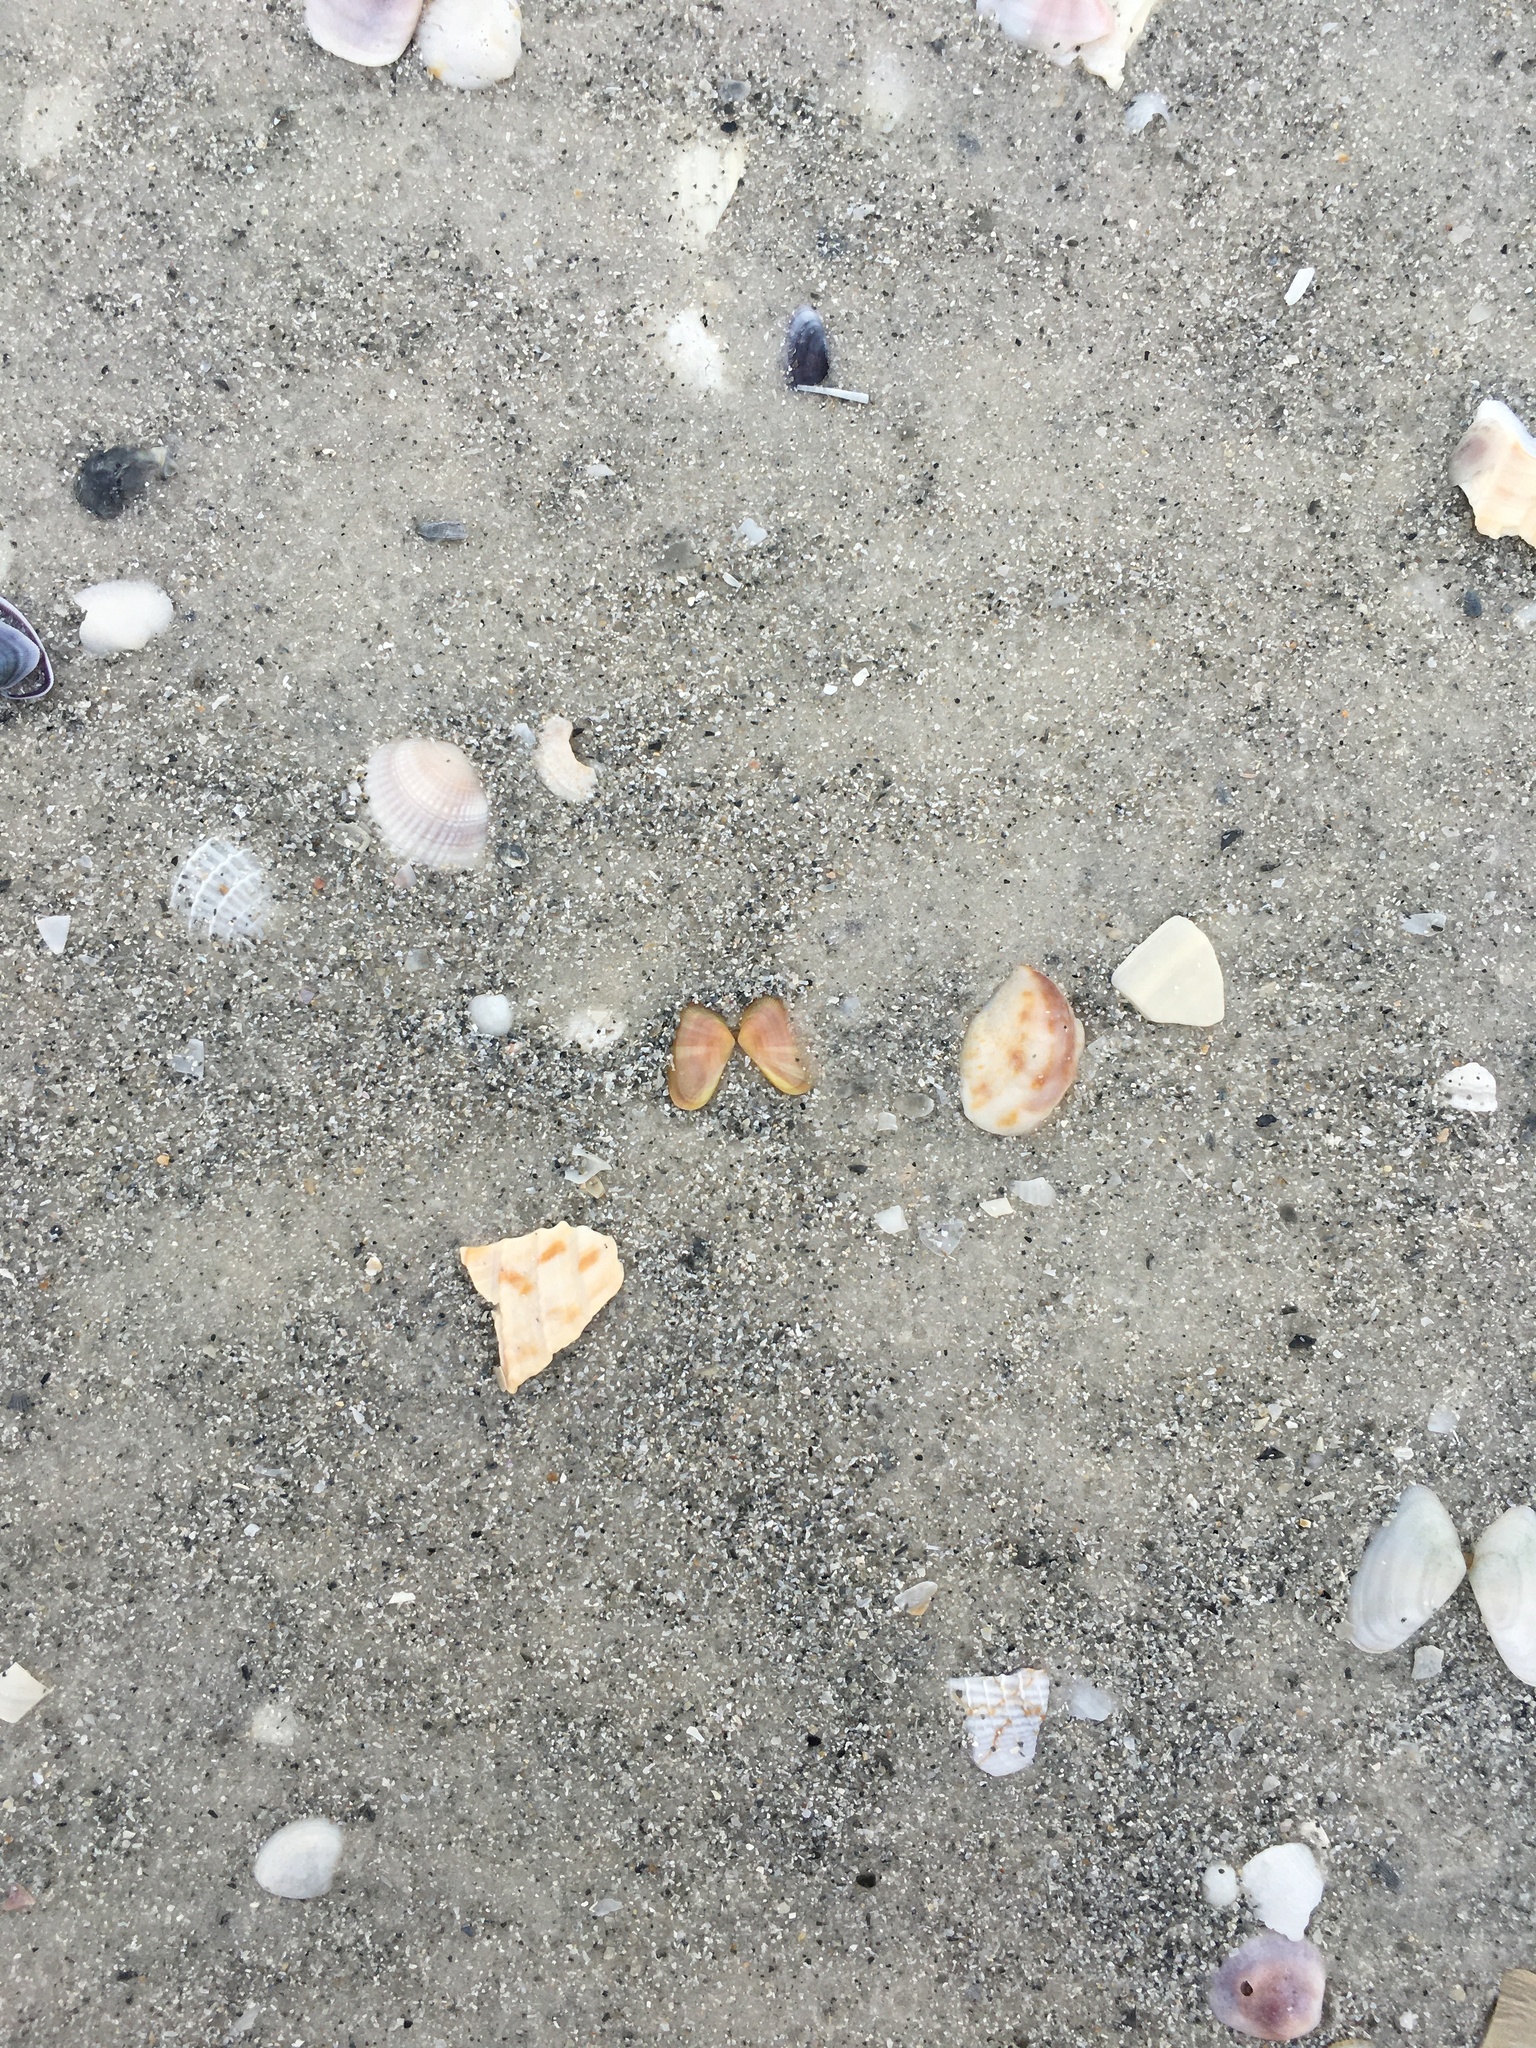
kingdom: Animalia
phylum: Mollusca
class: Bivalvia
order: Cardiida
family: Donacidae
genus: Donax
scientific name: Donax variabilis
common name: Butterfly shell
